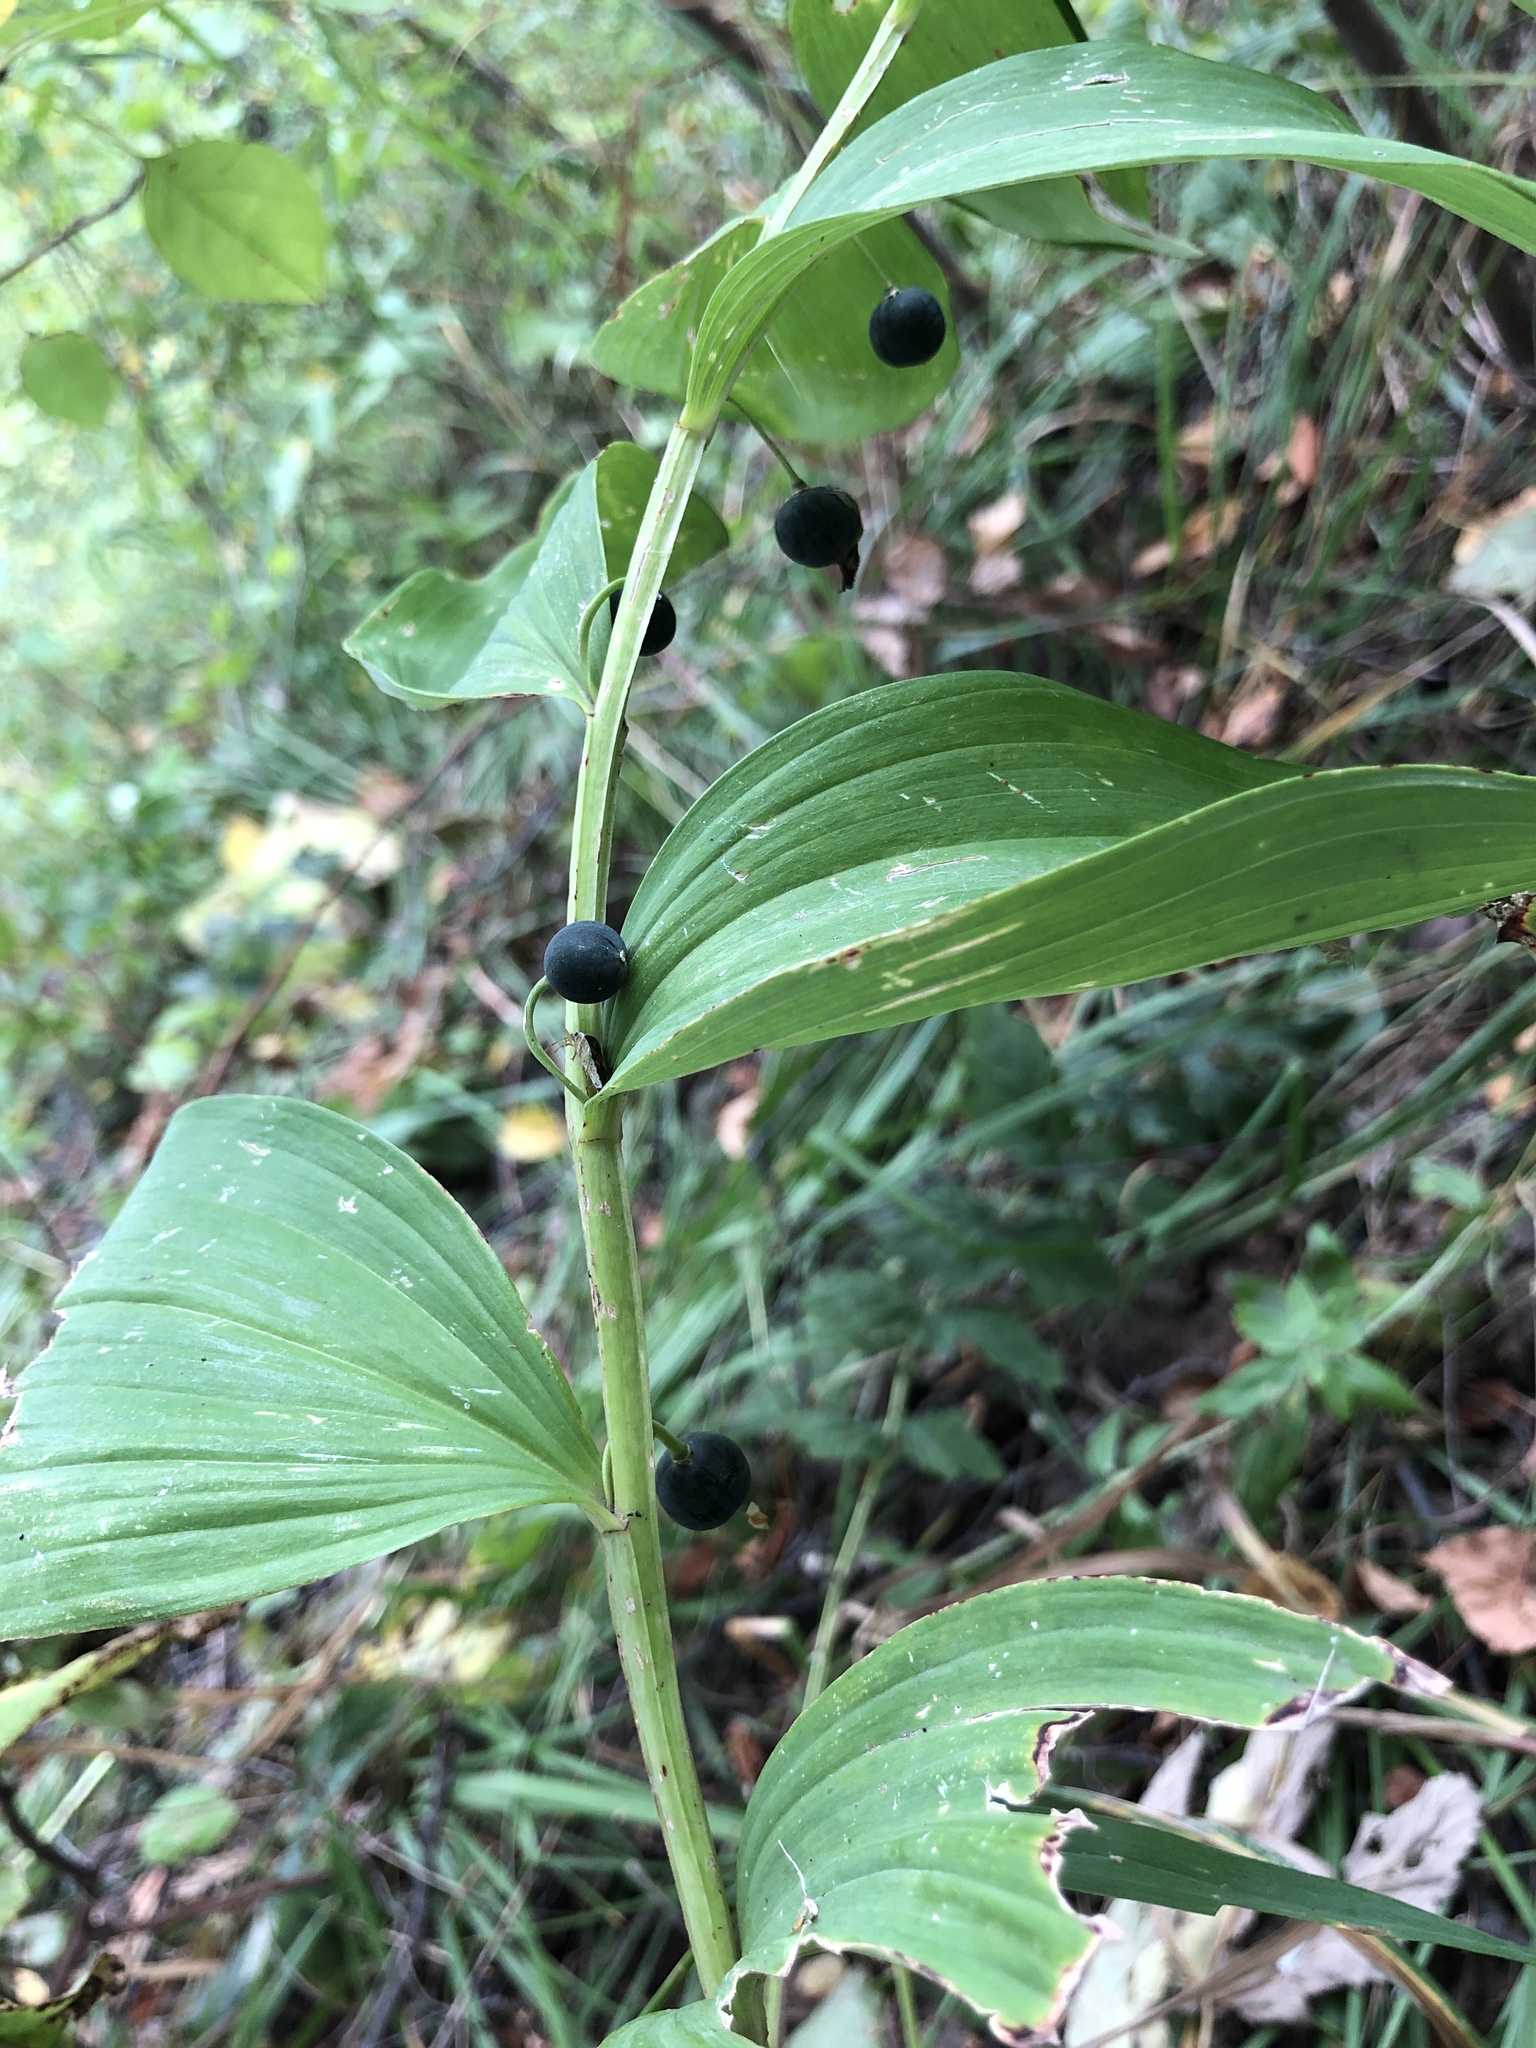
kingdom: Plantae
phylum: Tracheophyta
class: Liliopsida
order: Asparagales
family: Asparagaceae
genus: Polygonatum
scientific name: Polygonatum odoratum
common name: Angular solomon's-seal
